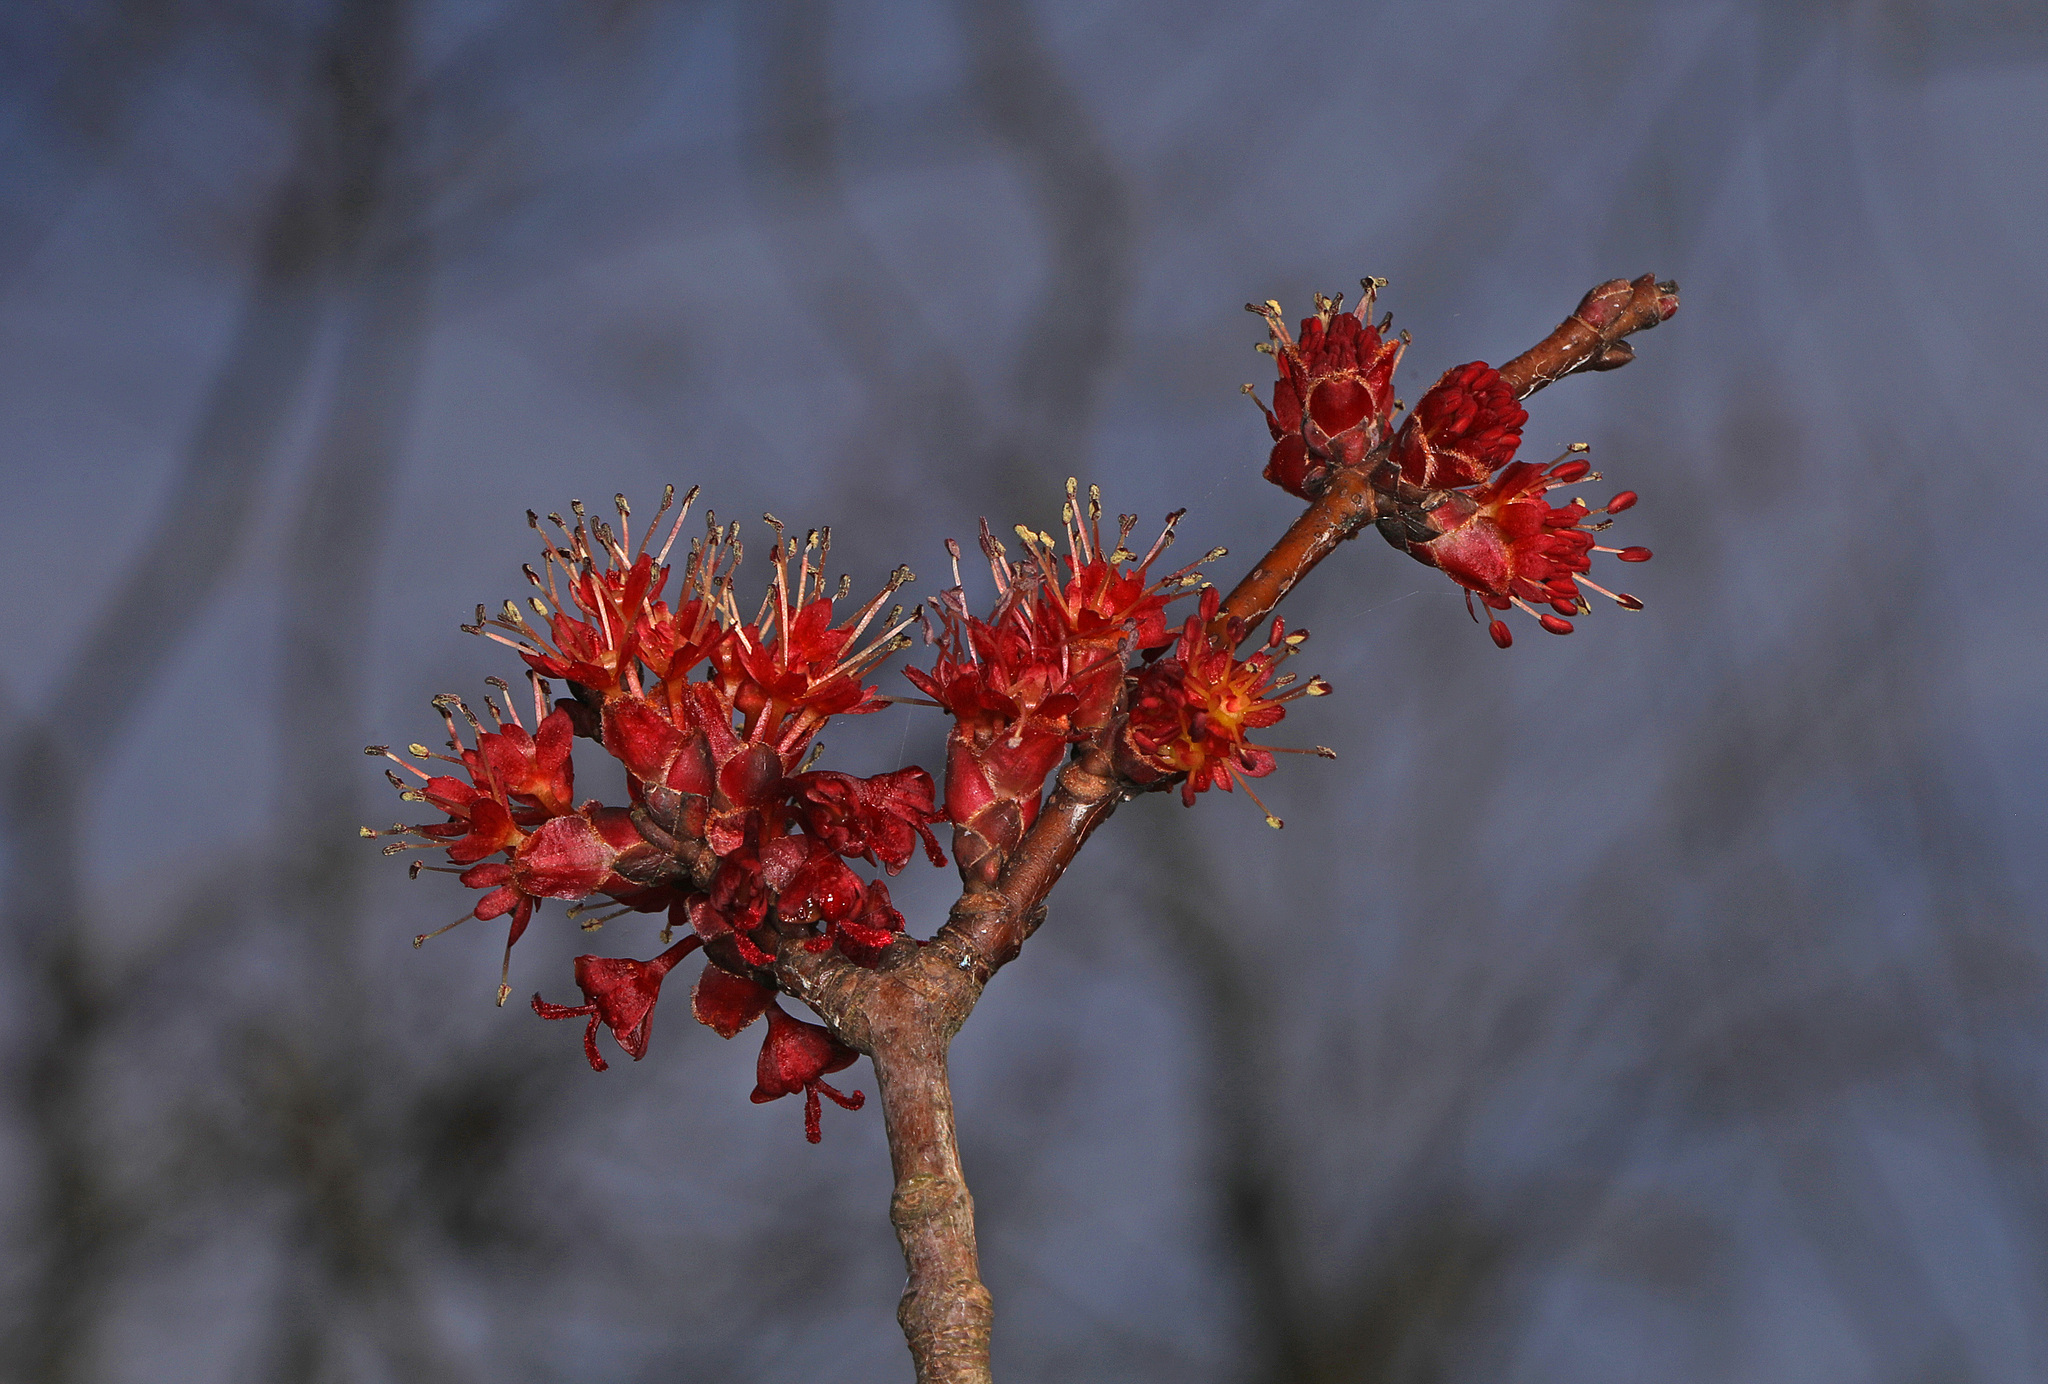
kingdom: Plantae
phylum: Tracheophyta
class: Magnoliopsida
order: Sapindales
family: Sapindaceae
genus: Acer
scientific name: Acer rubrum
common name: Red maple
